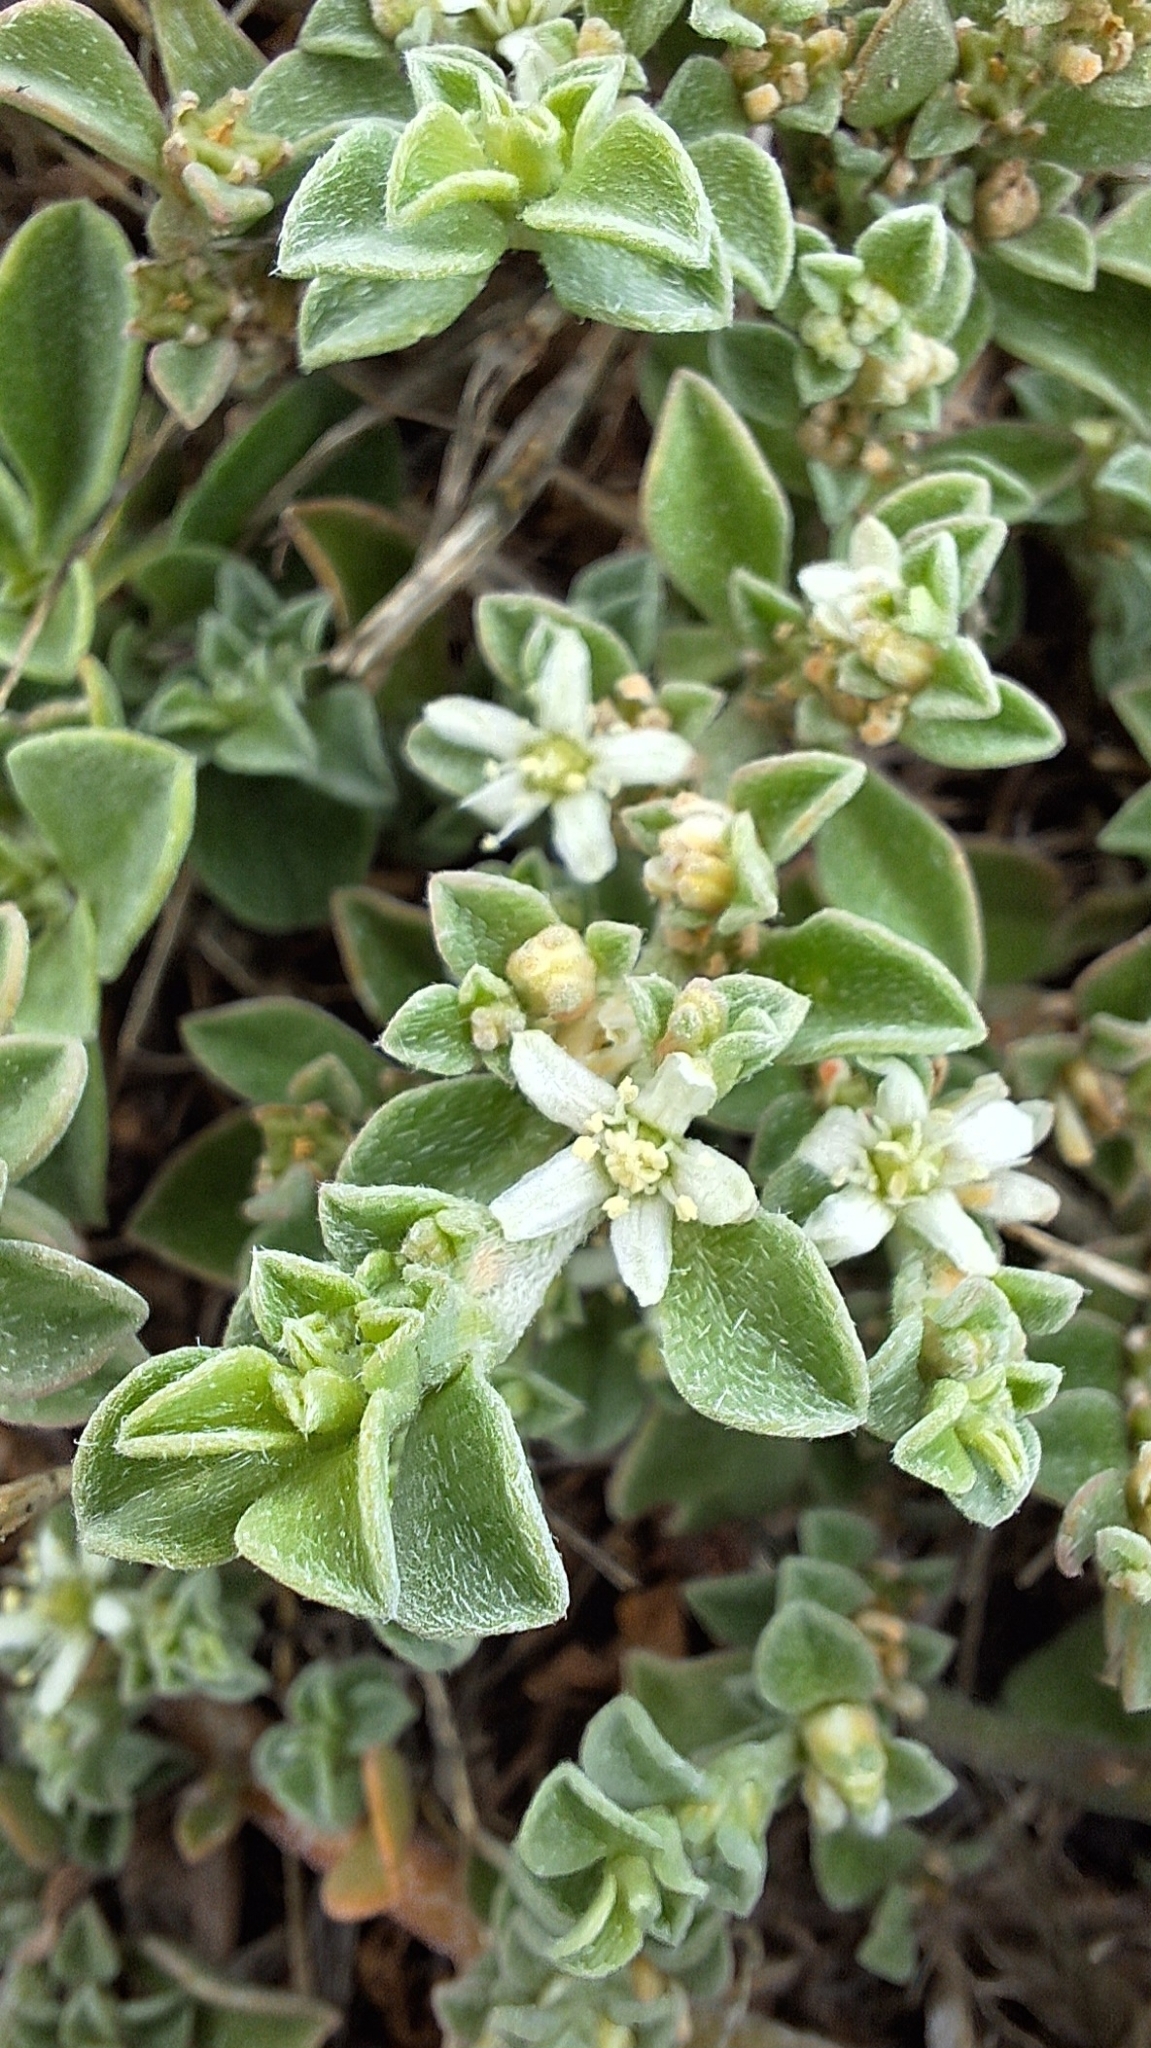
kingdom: Plantae
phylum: Tracheophyta
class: Magnoliopsida
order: Caryophyllales
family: Aizoaceae
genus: Aizoon
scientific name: Aizoon pubescens
